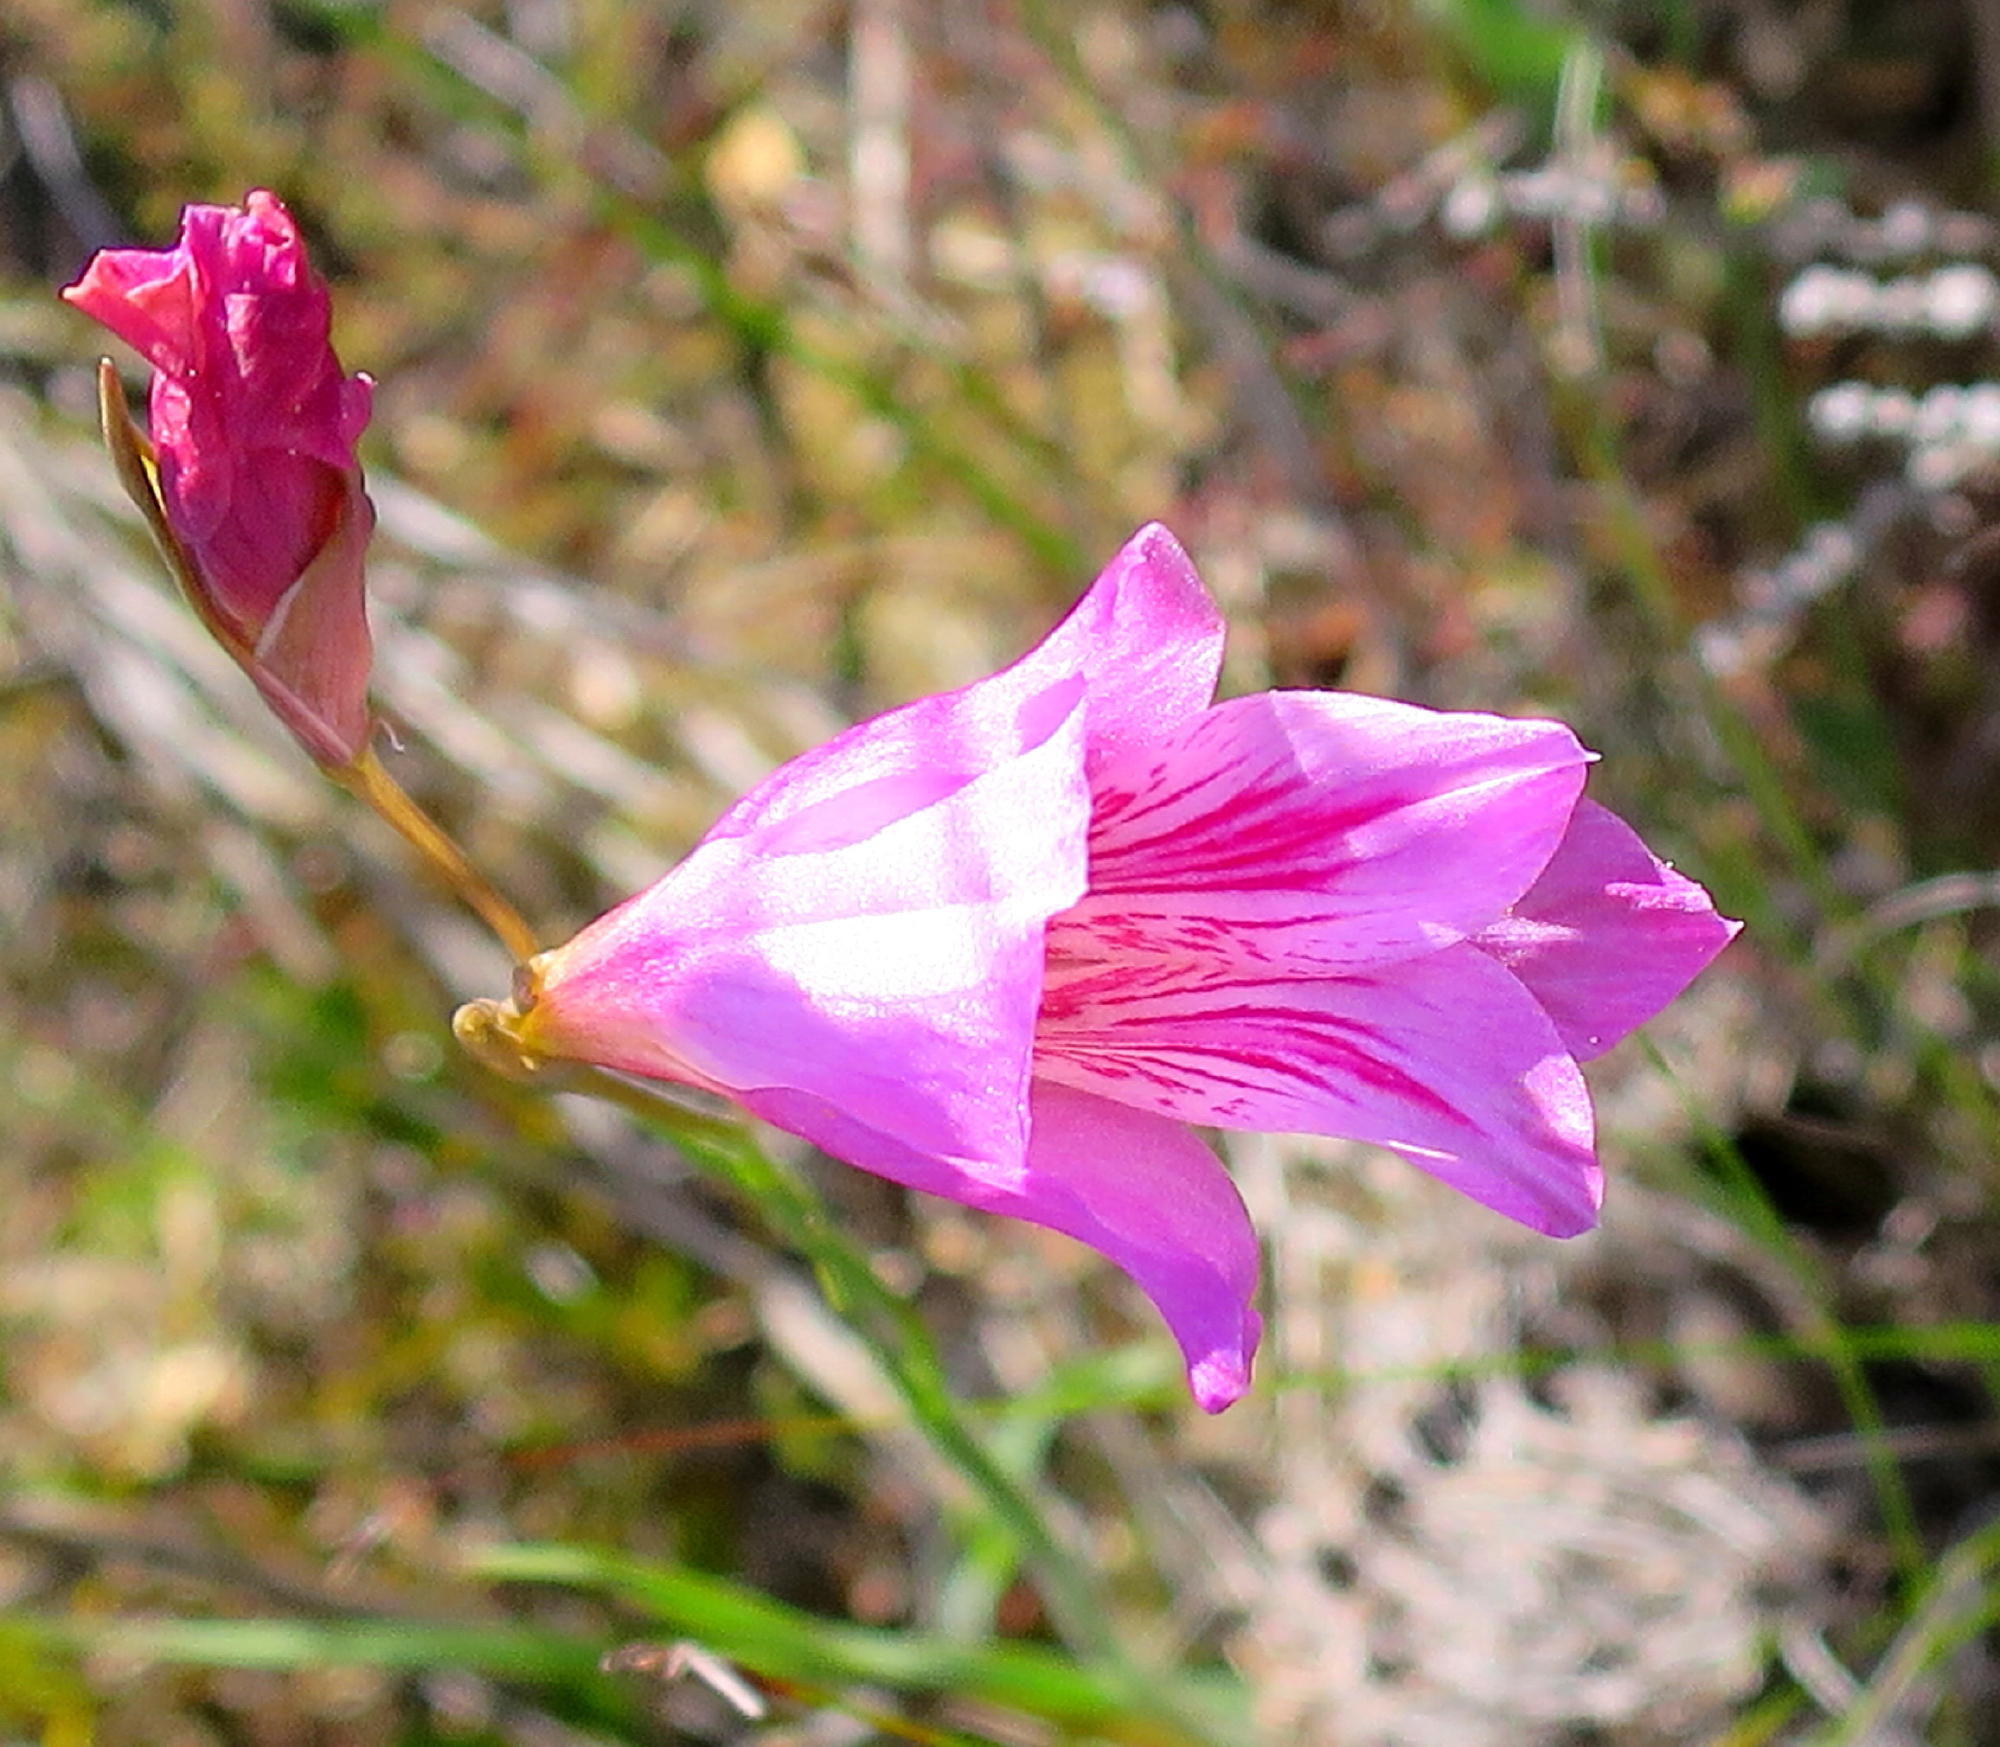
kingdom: Plantae
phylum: Tracheophyta
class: Liliopsida
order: Asparagales
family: Iridaceae
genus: Gladiolus
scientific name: Gladiolus hirsutus
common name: Small pink afrikaner
